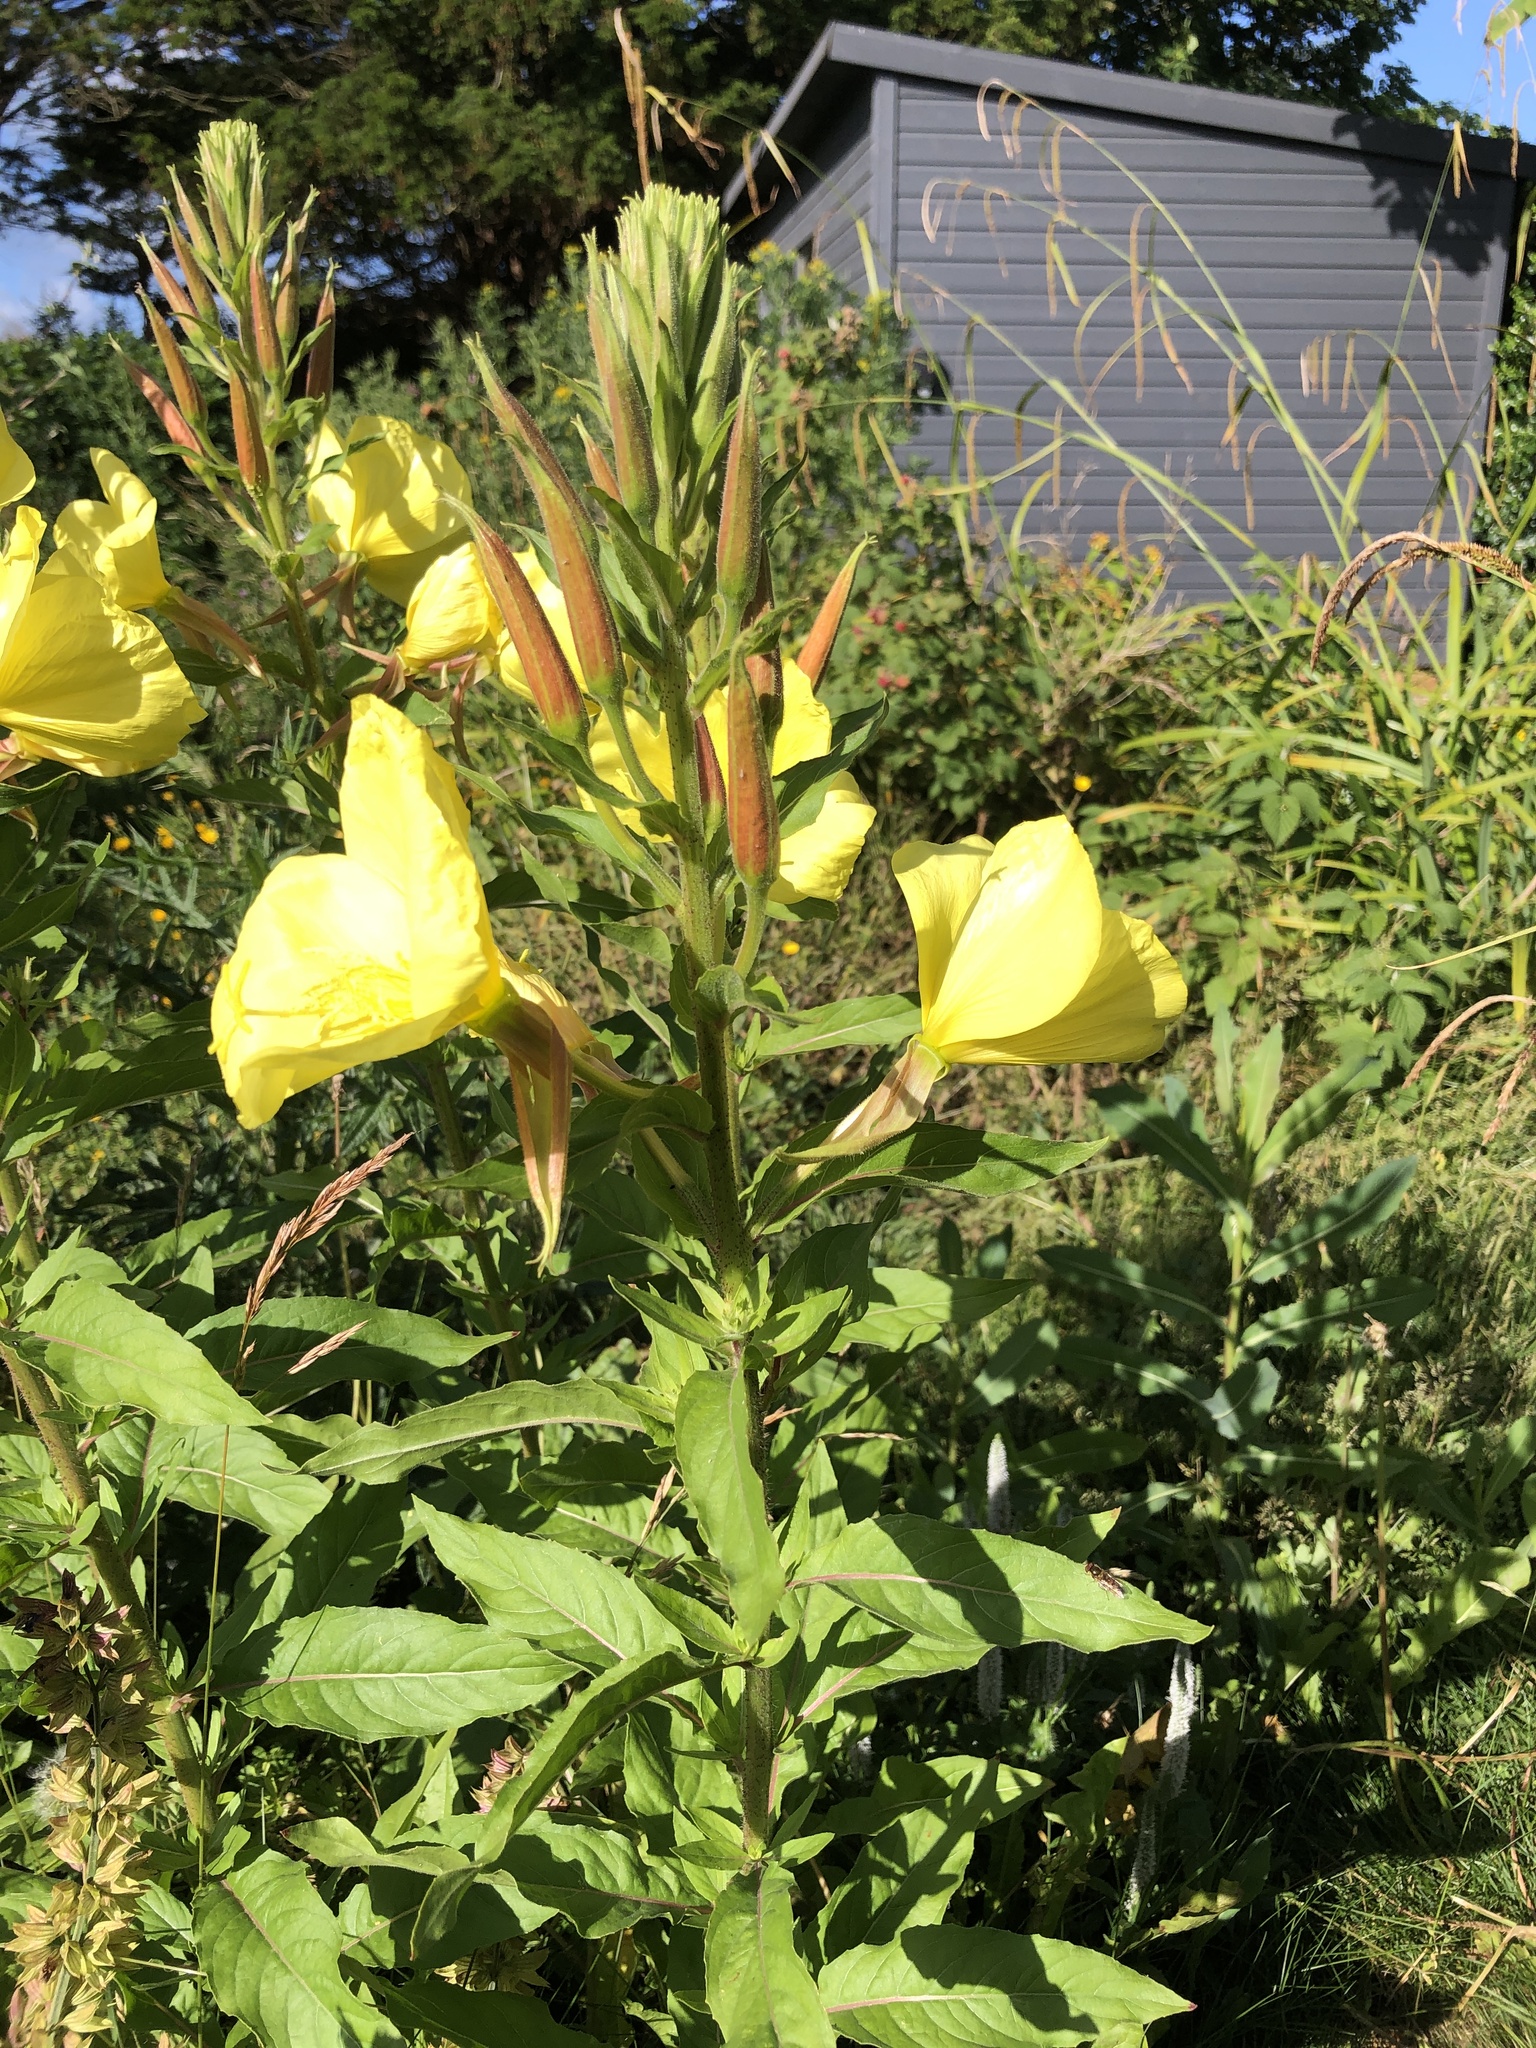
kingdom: Plantae
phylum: Tracheophyta
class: Magnoliopsida
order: Myrtales
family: Onagraceae
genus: Oenothera
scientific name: Oenothera glazioviana
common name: Large-flowered evening-primrose
